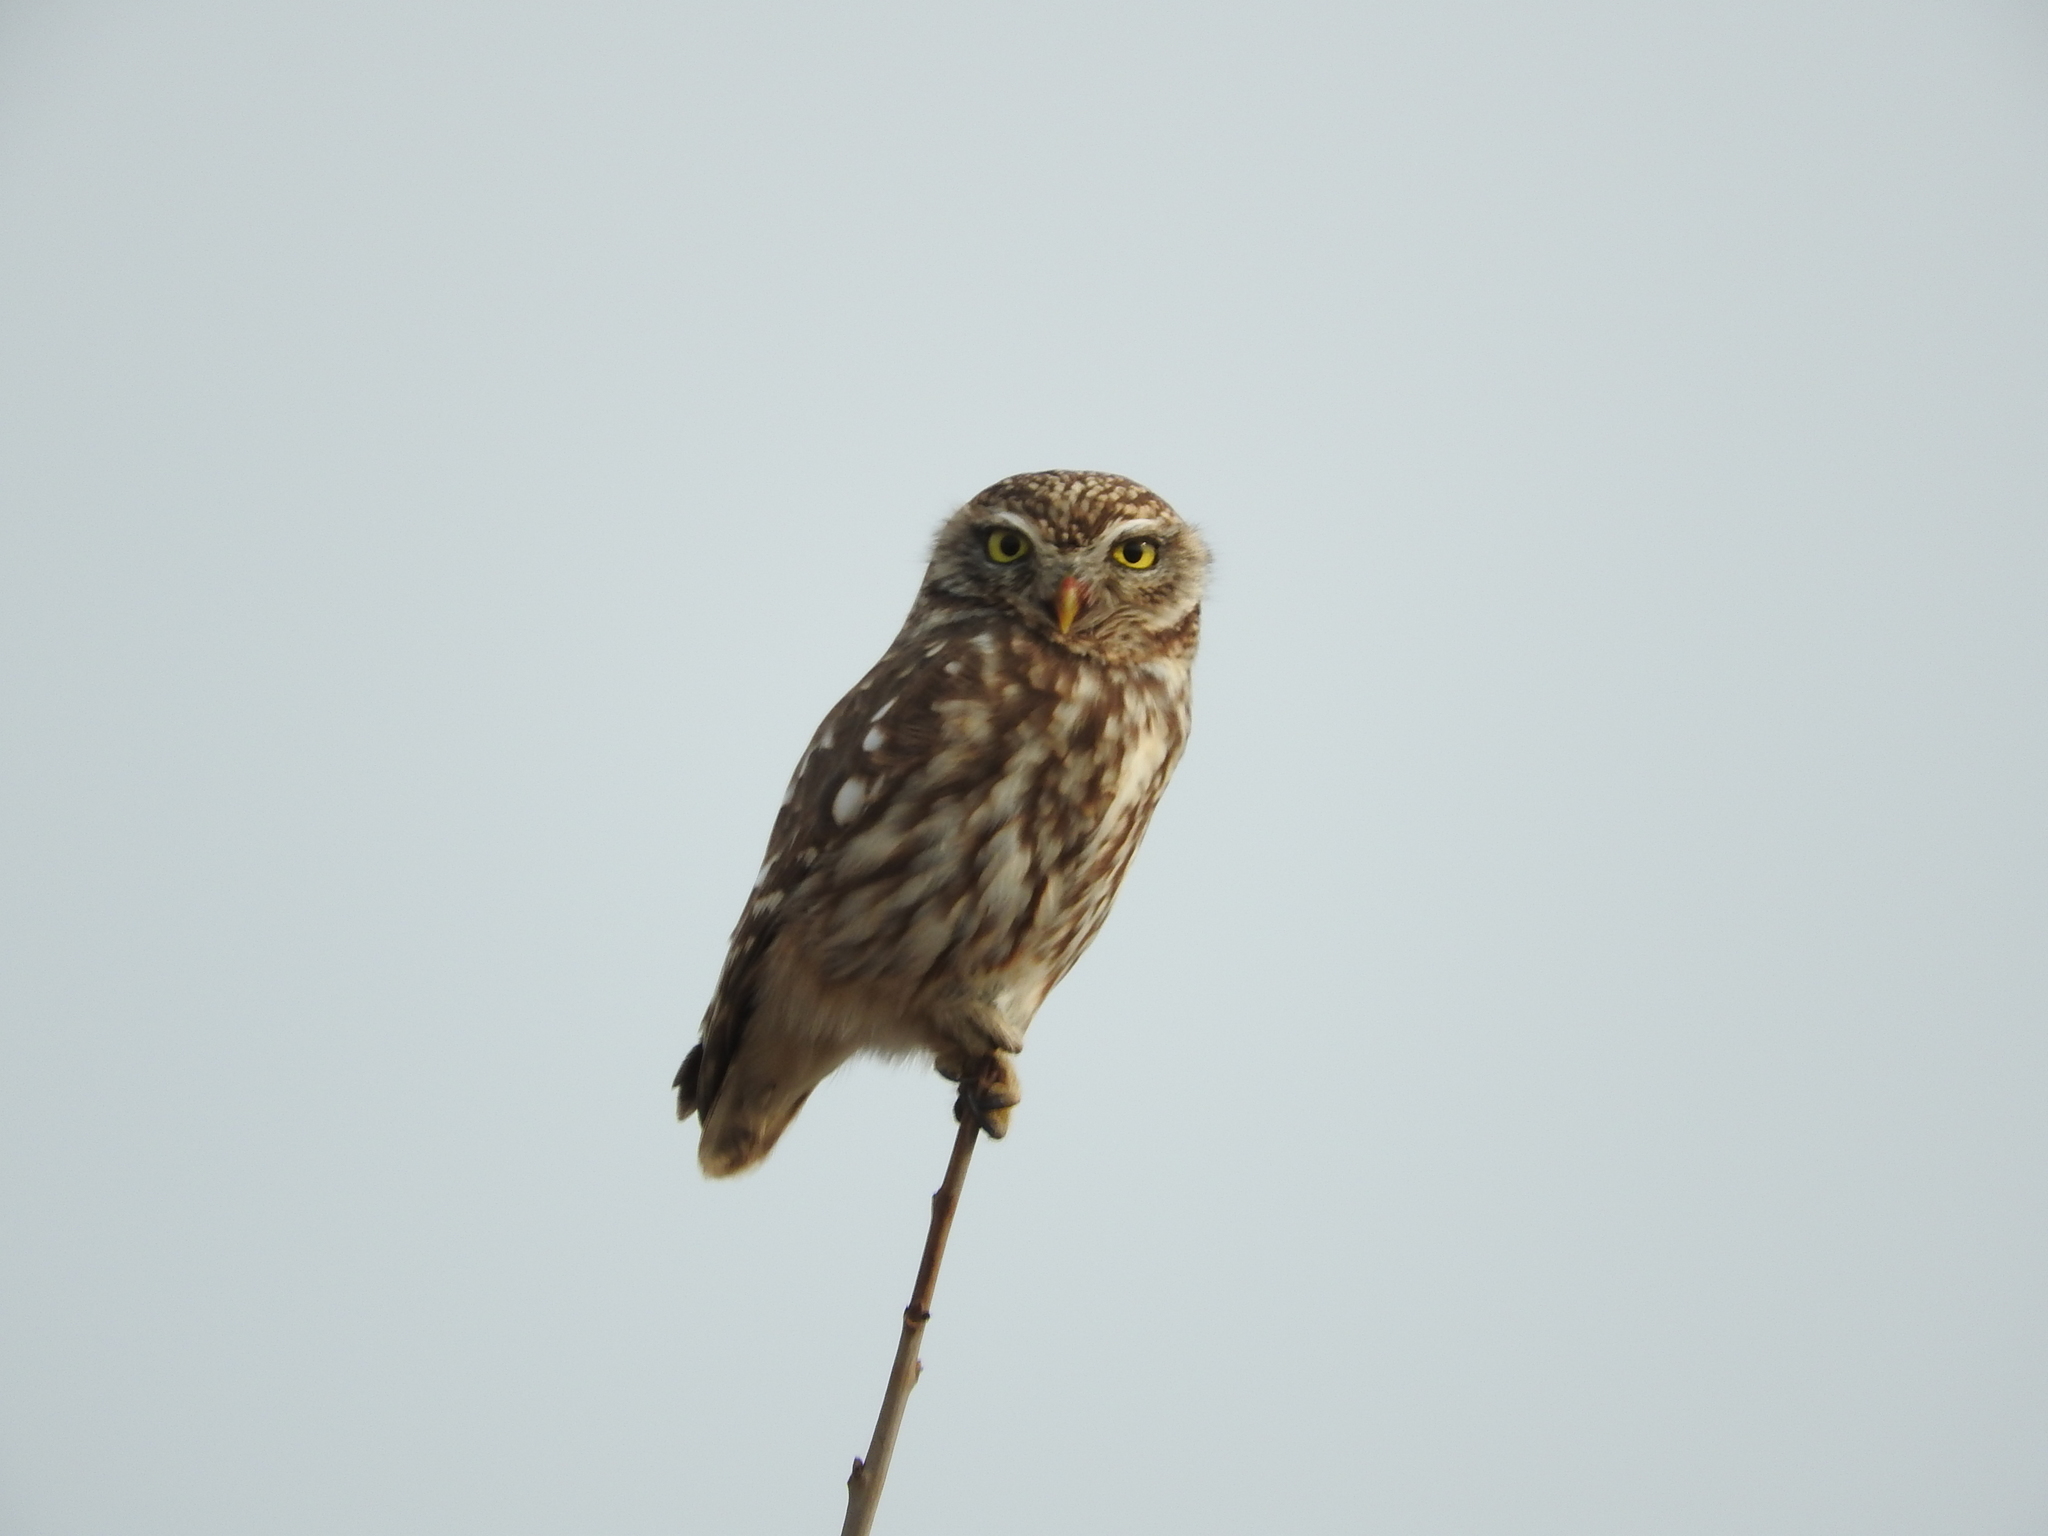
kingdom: Animalia
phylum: Chordata
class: Aves
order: Strigiformes
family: Strigidae
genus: Athene
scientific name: Athene noctua
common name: Little owl
